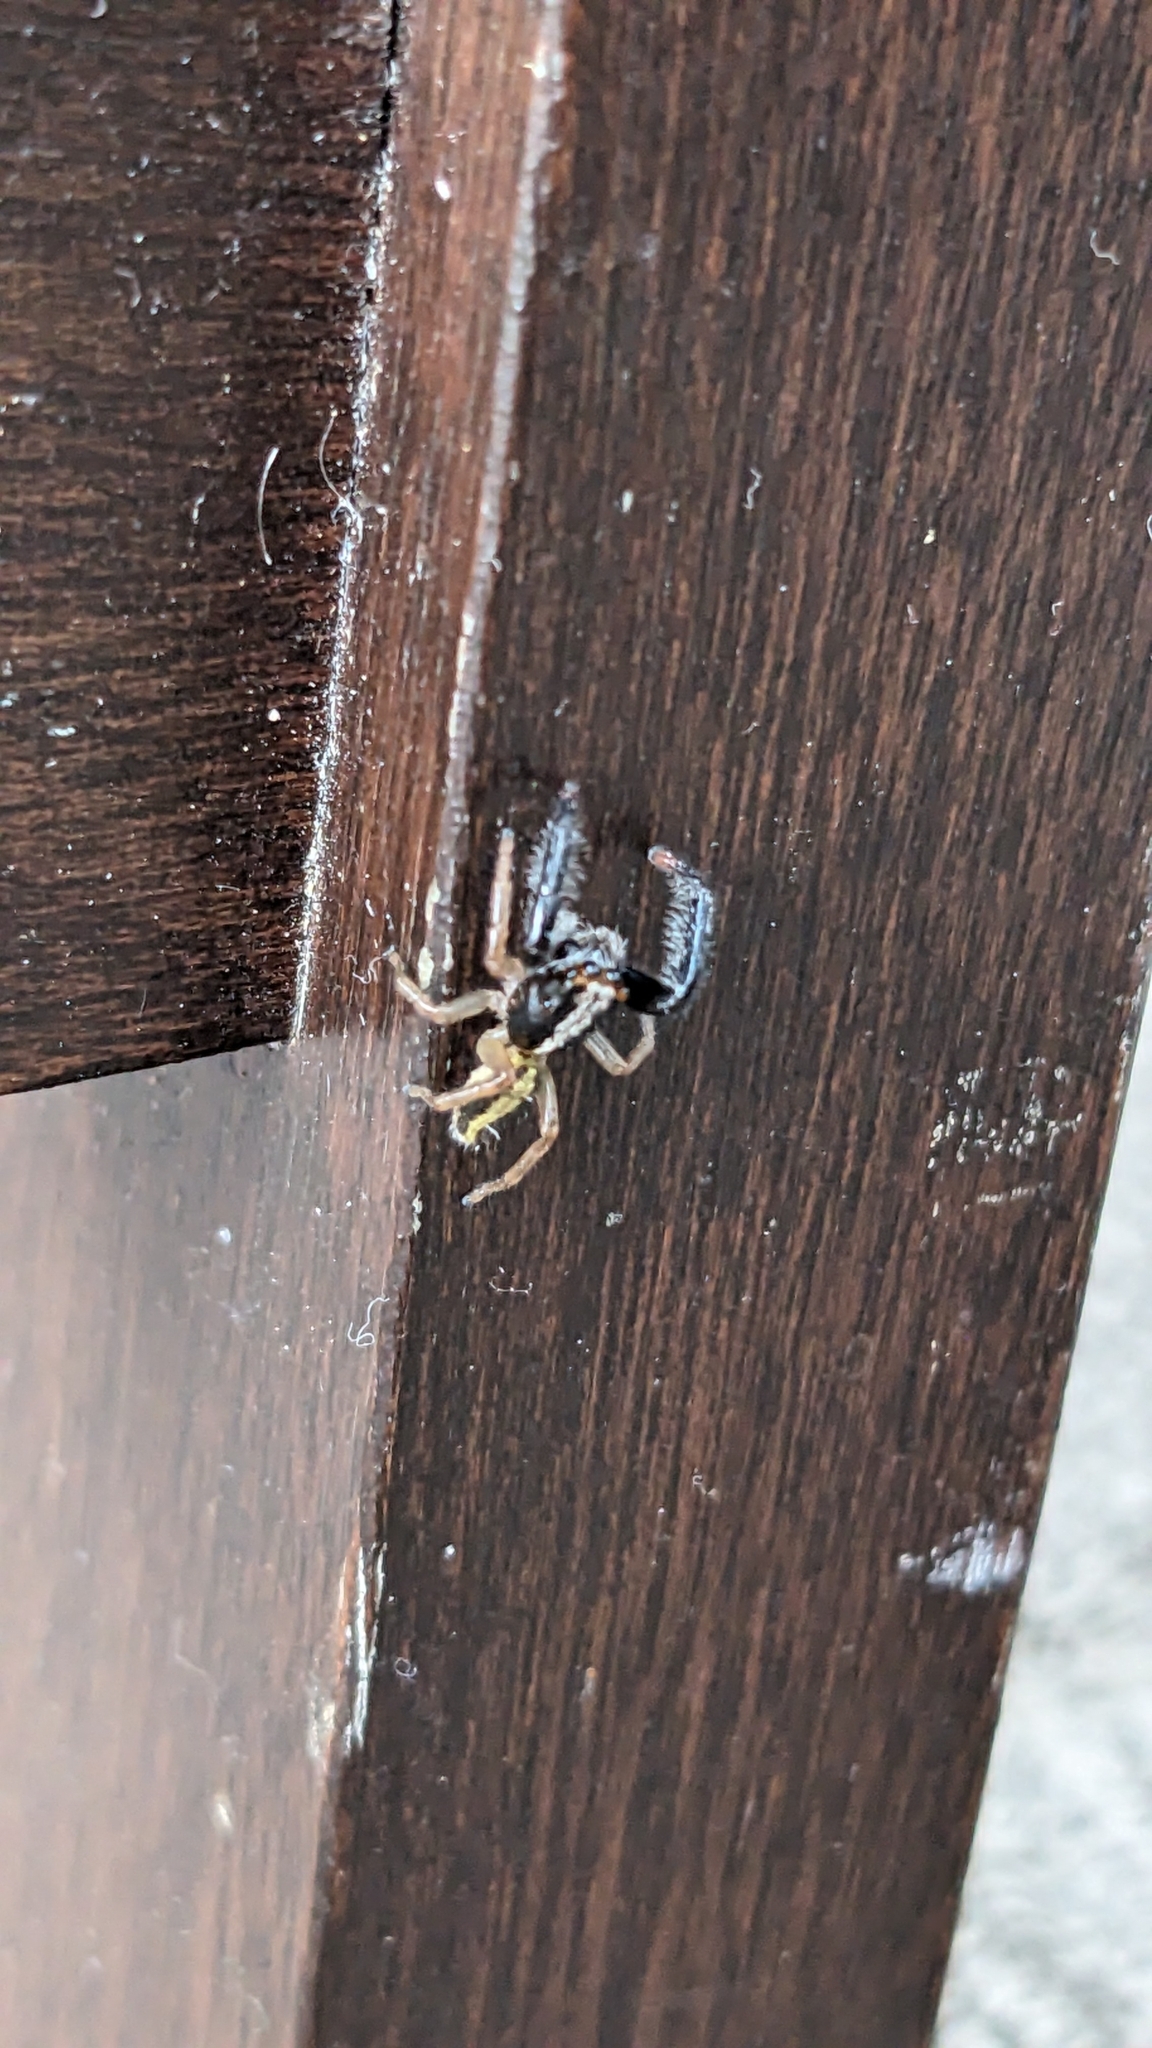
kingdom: Animalia
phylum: Arthropoda
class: Arachnida
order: Araneae
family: Salticidae
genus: Trite
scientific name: Trite planiceps
